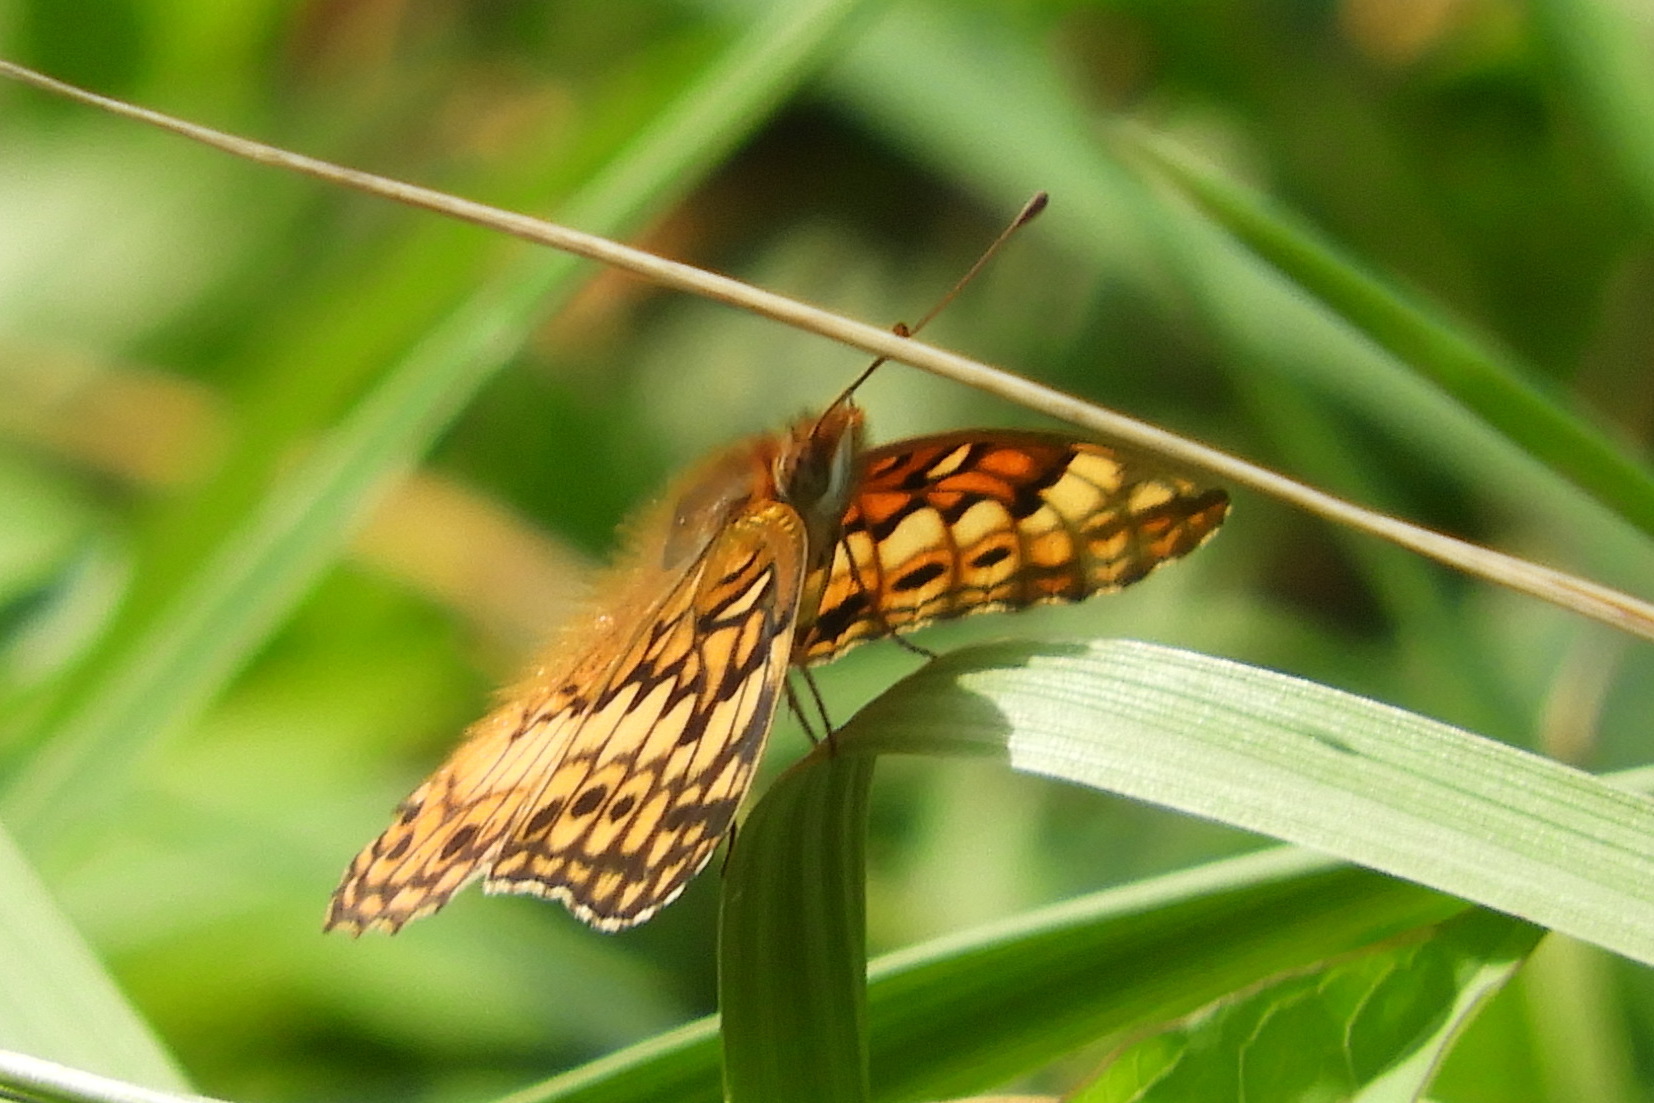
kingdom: Animalia
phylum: Arthropoda
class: Insecta
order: Lepidoptera
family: Nymphalidae
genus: Euptoieta
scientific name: Euptoieta claudia
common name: Variegated fritillary
